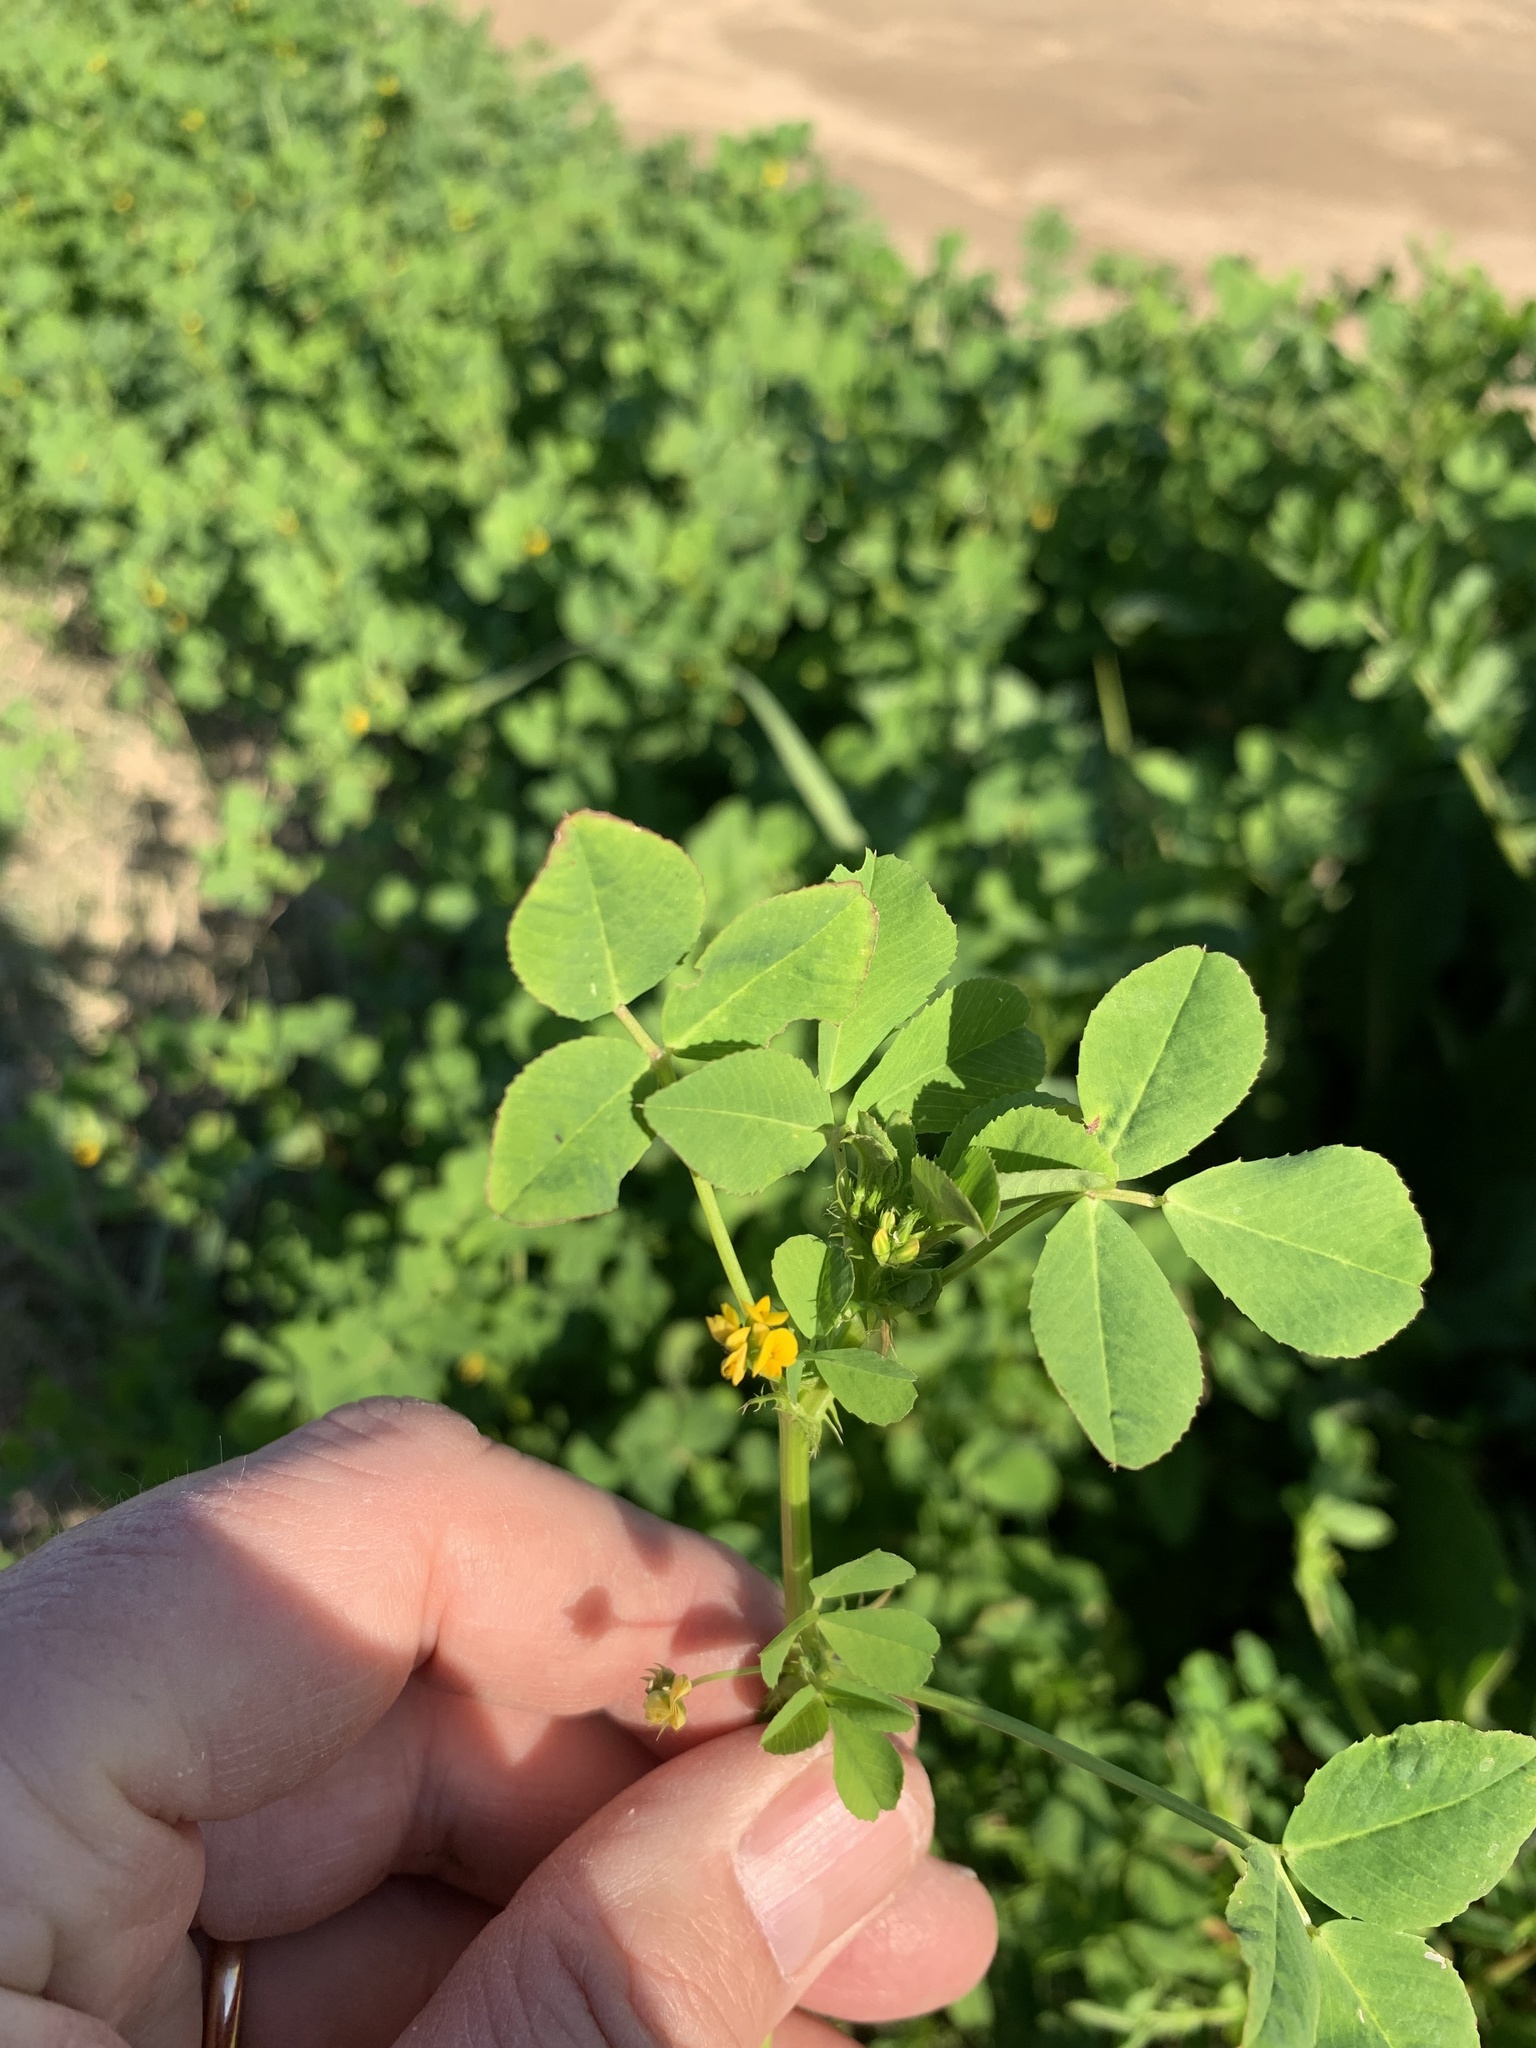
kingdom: Plantae
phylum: Tracheophyta
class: Magnoliopsida
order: Fabales
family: Fabaceae
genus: Medicago
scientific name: Medicago polymorpha
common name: Burclover
